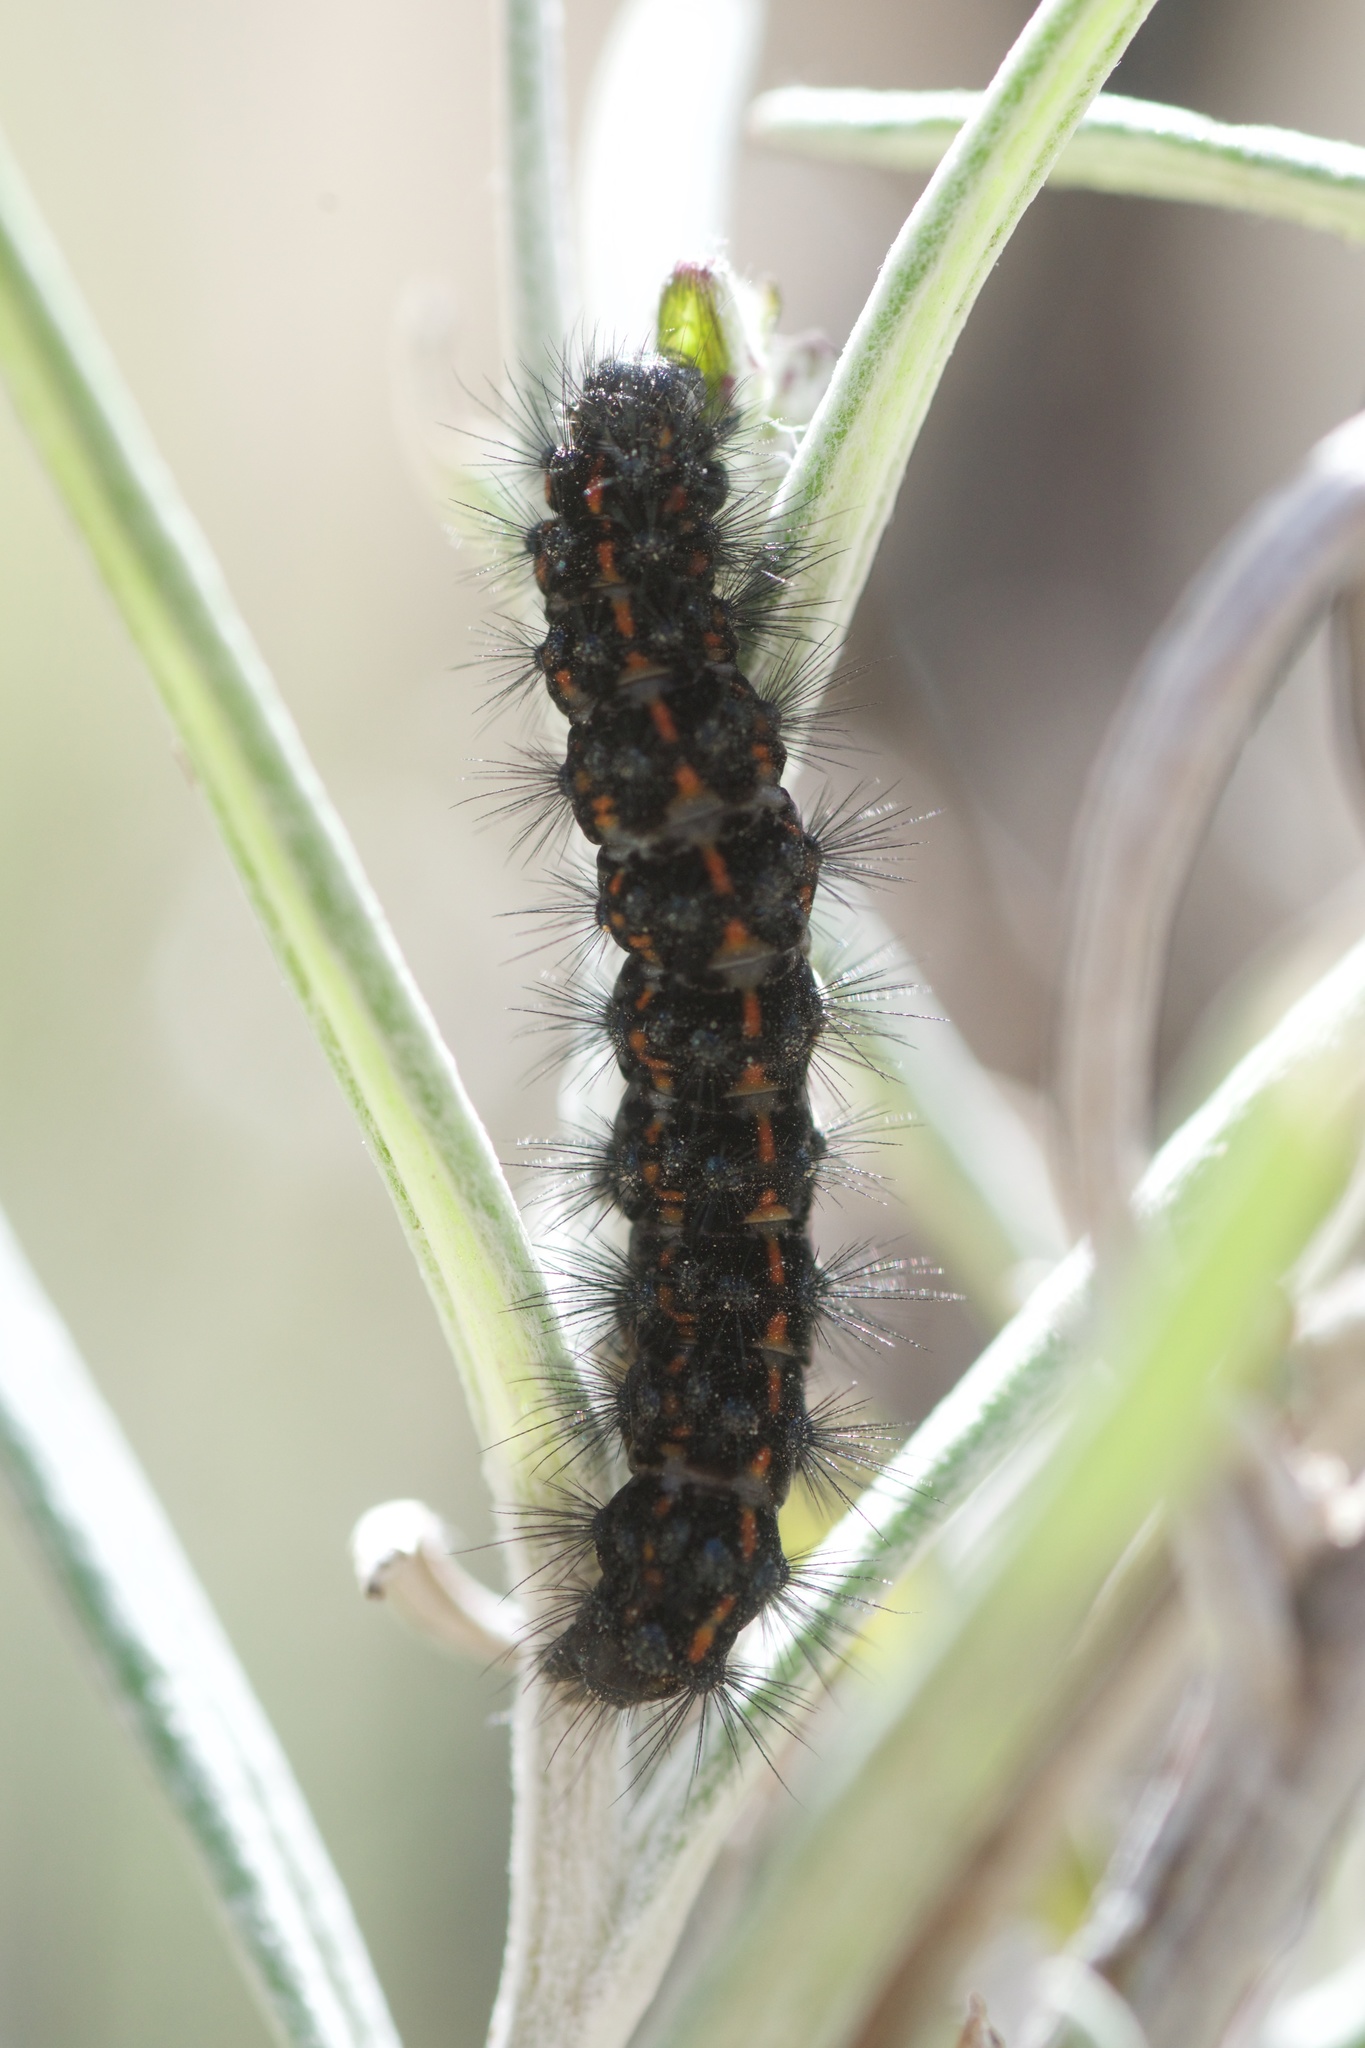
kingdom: Animalia
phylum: Arthropoda
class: Insecta
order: Lepidoptera
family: Erebidae
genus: Nyctemera
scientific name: Nyctemera annulatum
